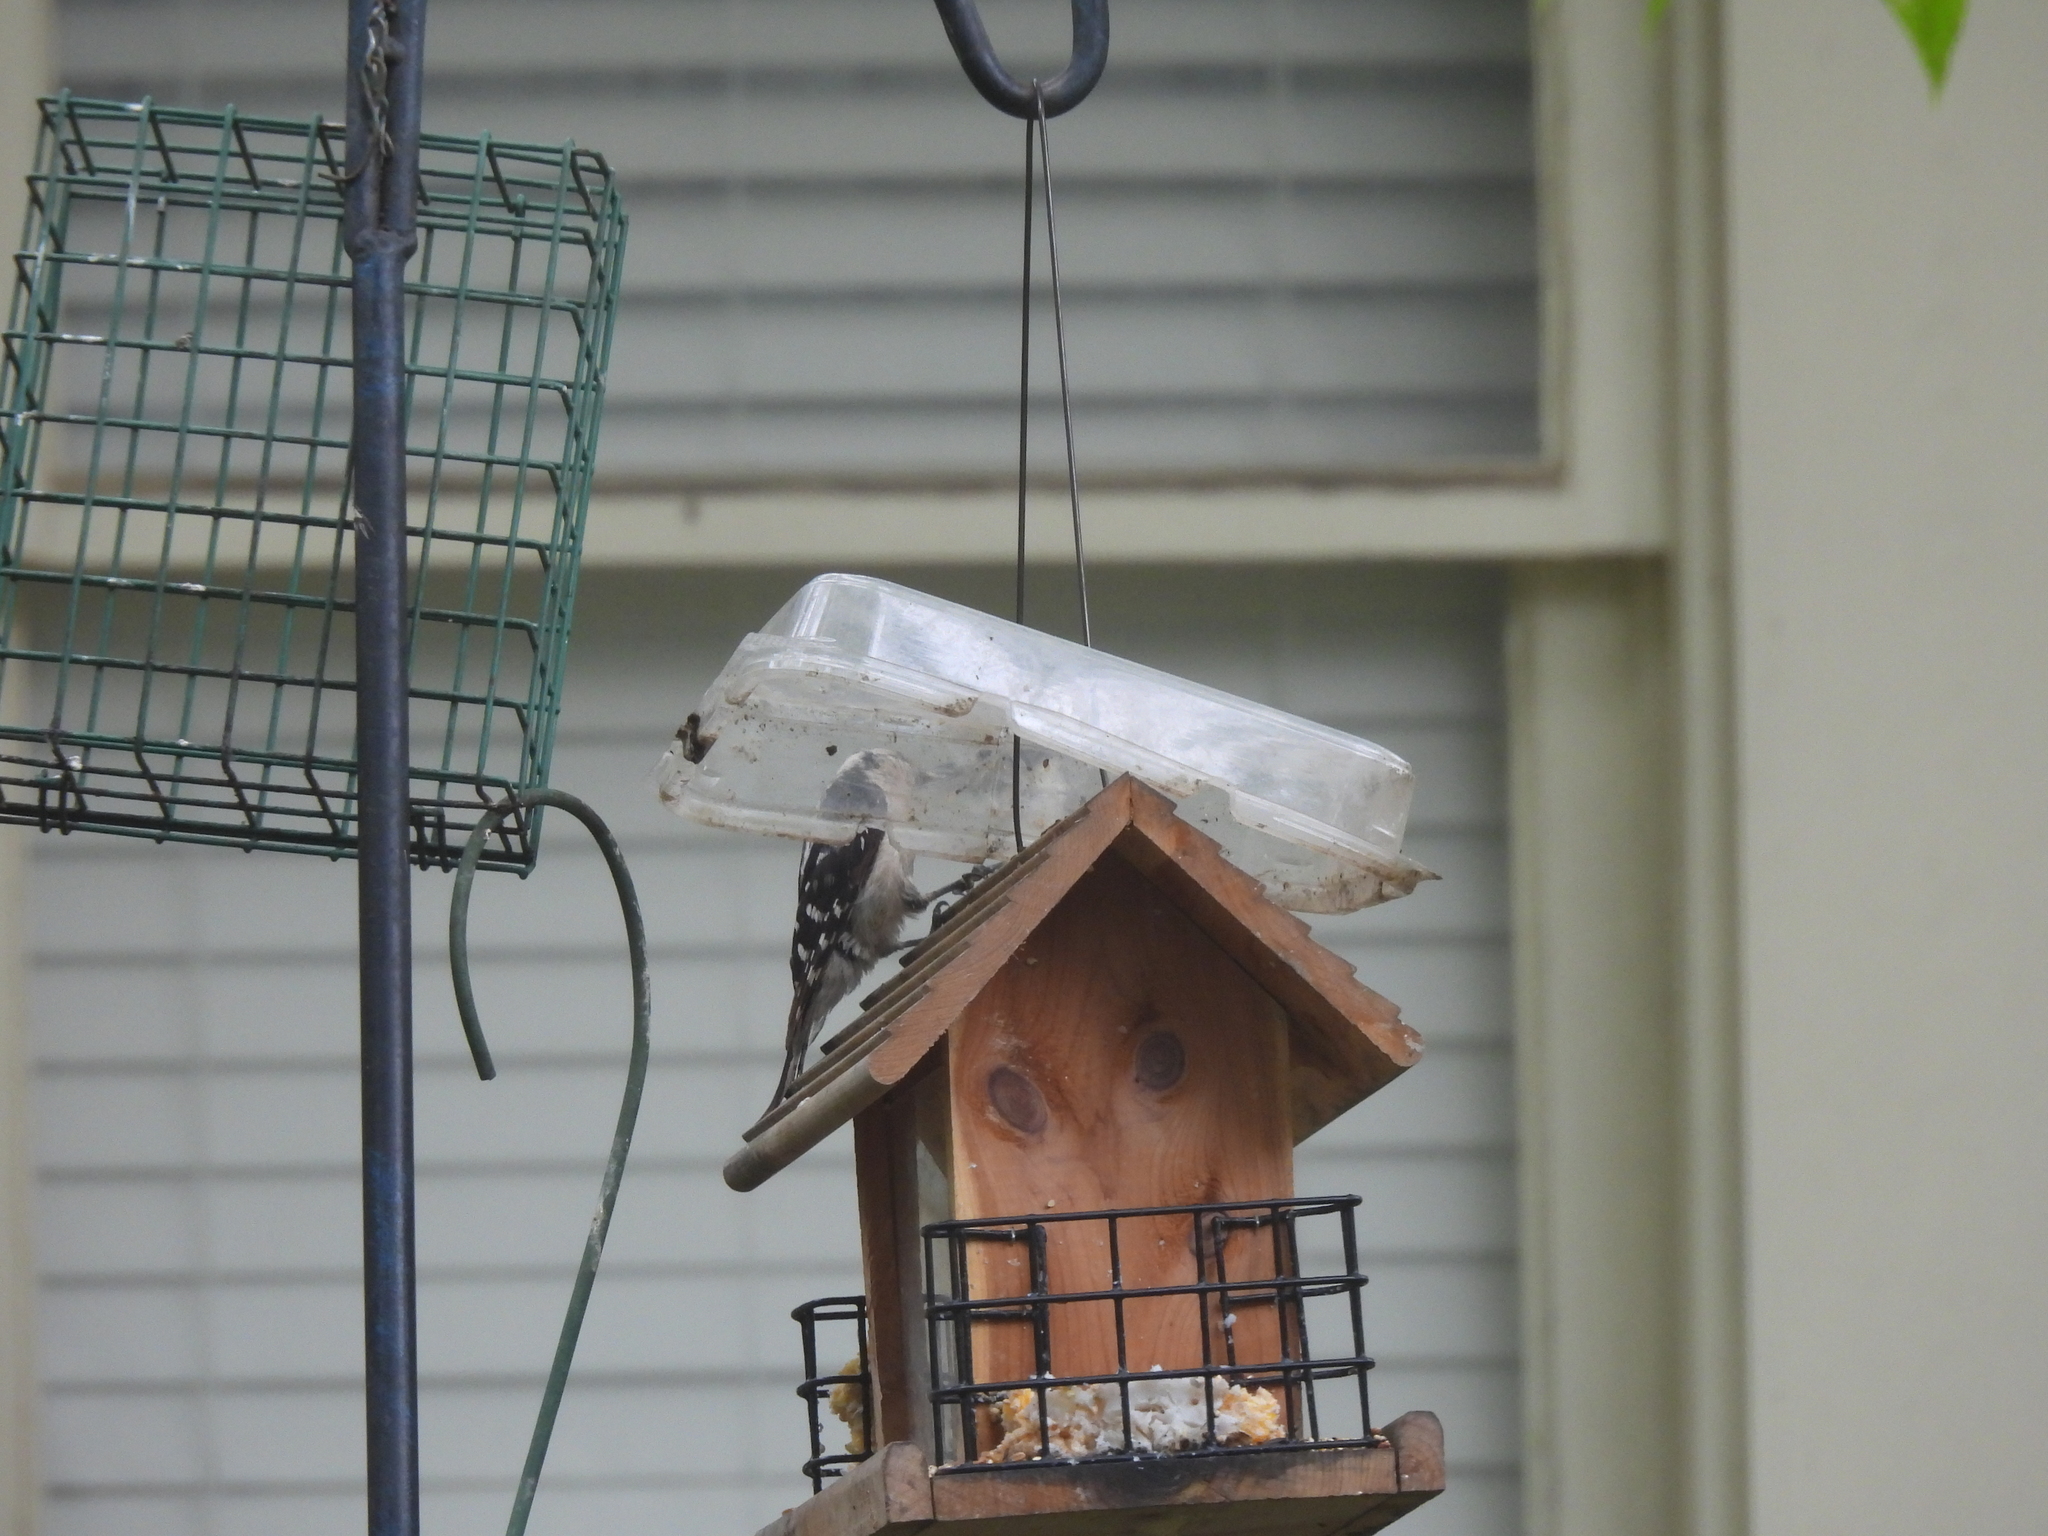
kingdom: Animalia
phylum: Chordata
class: Aves
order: Piciformes
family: Picidae
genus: Dryobates
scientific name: Dryobates pubescens
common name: Downy woodpecker
